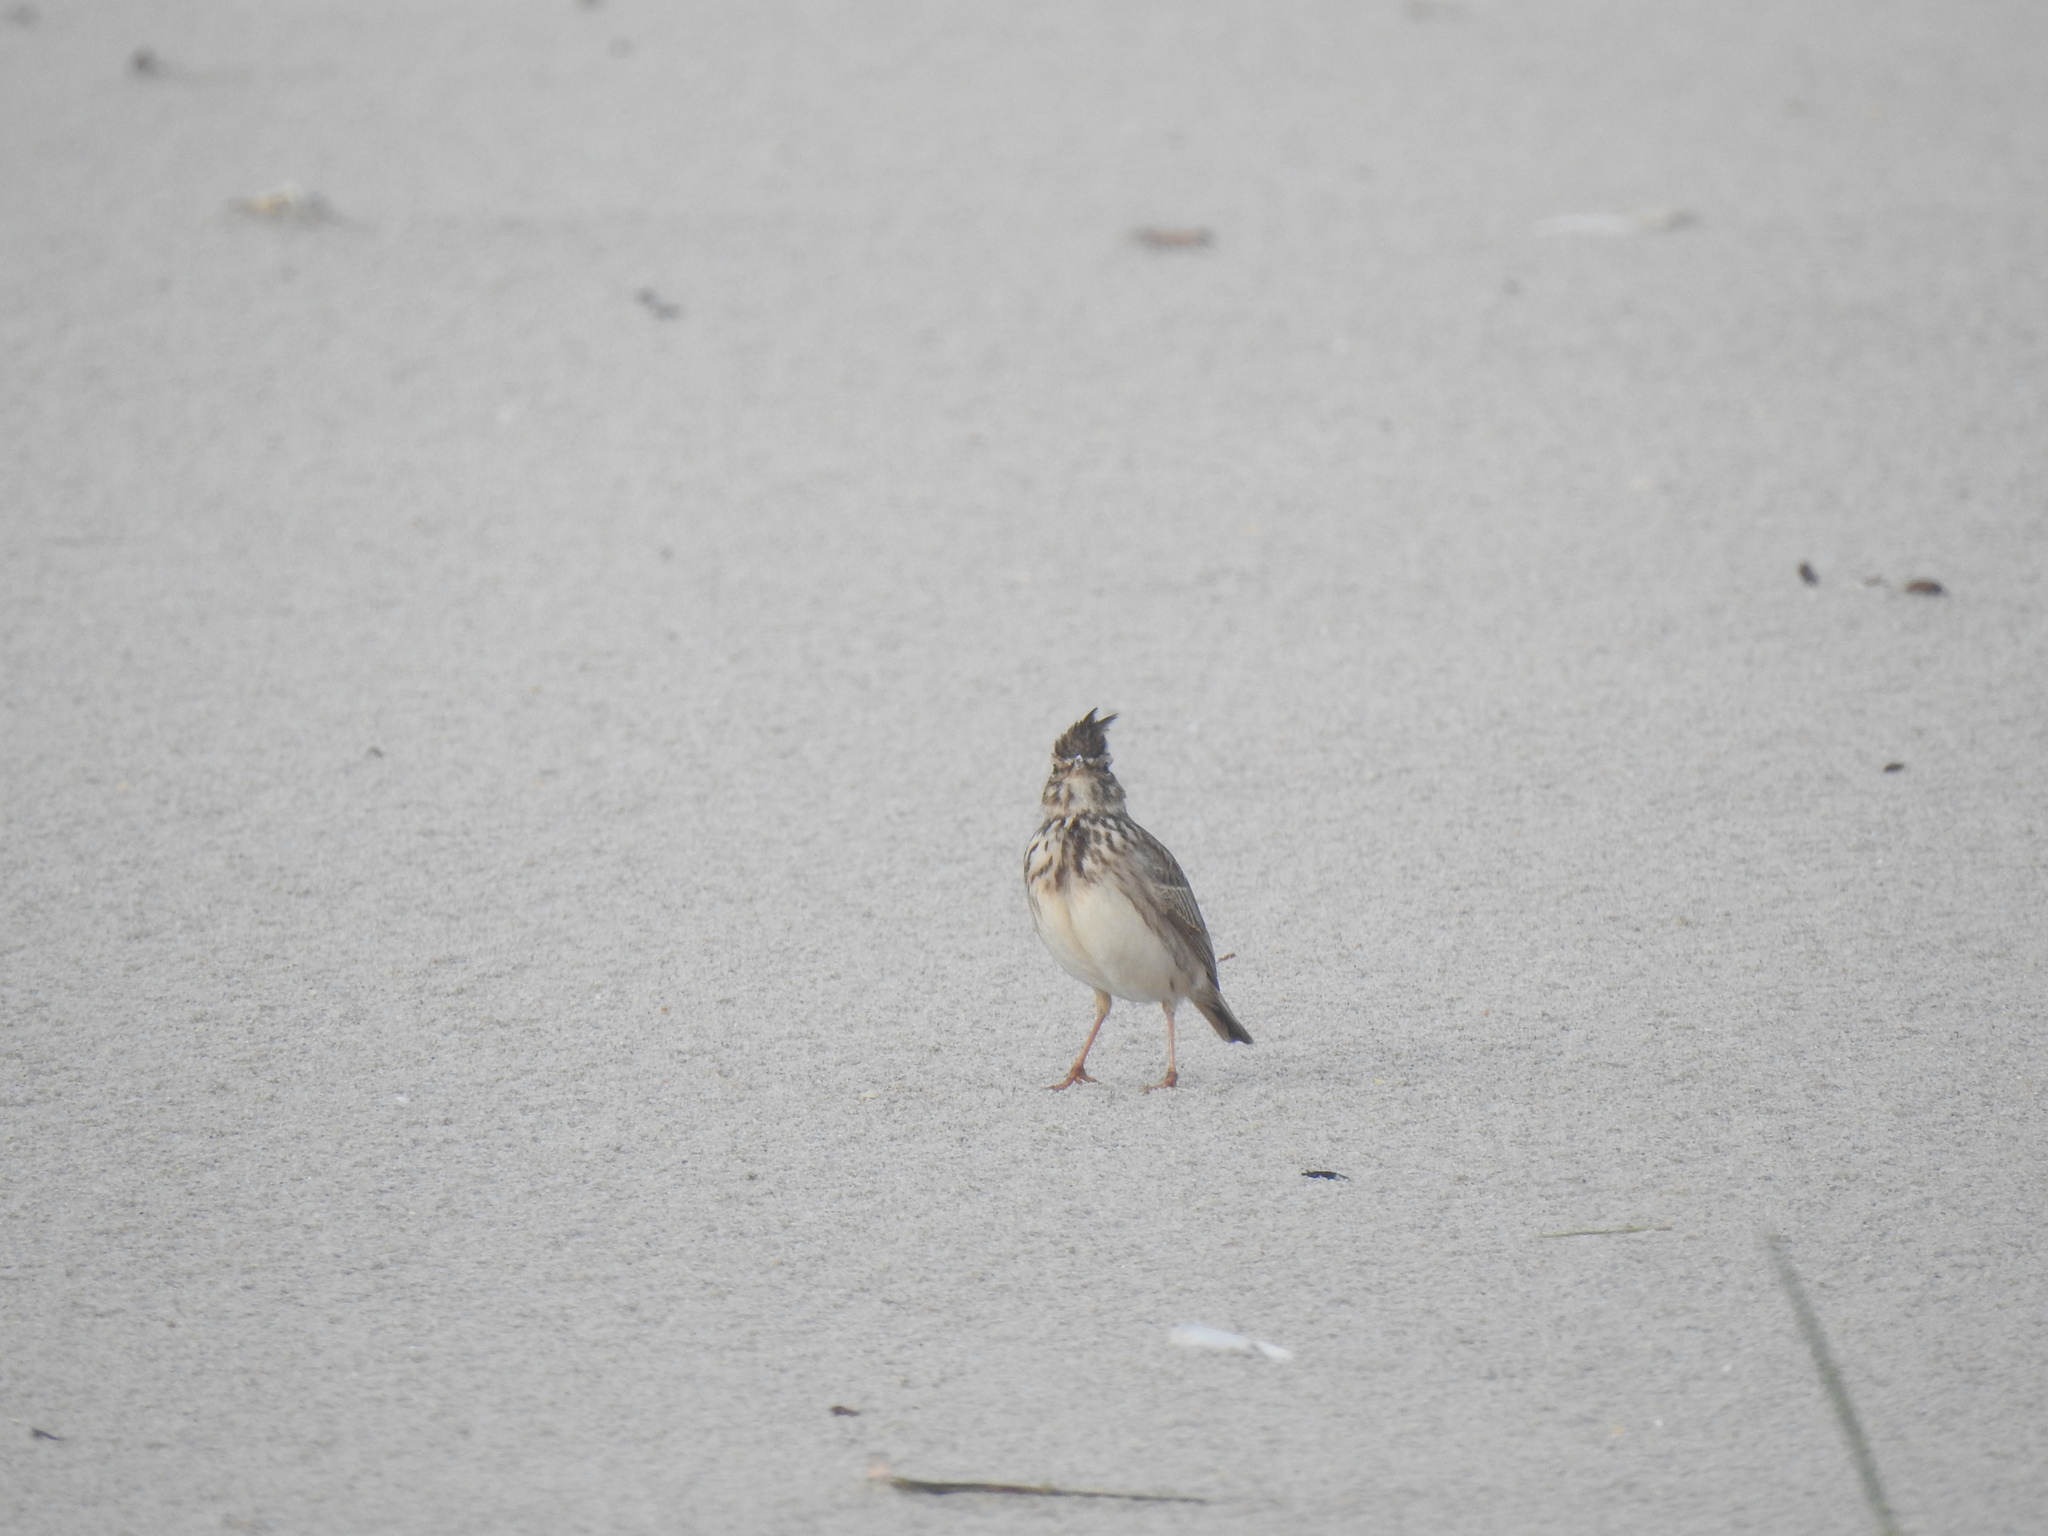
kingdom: Animalia
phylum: Chordata
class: Aves
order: Passeriformes
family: Alaudidae
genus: Galerida
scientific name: Galerida cristata
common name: Crested lark
